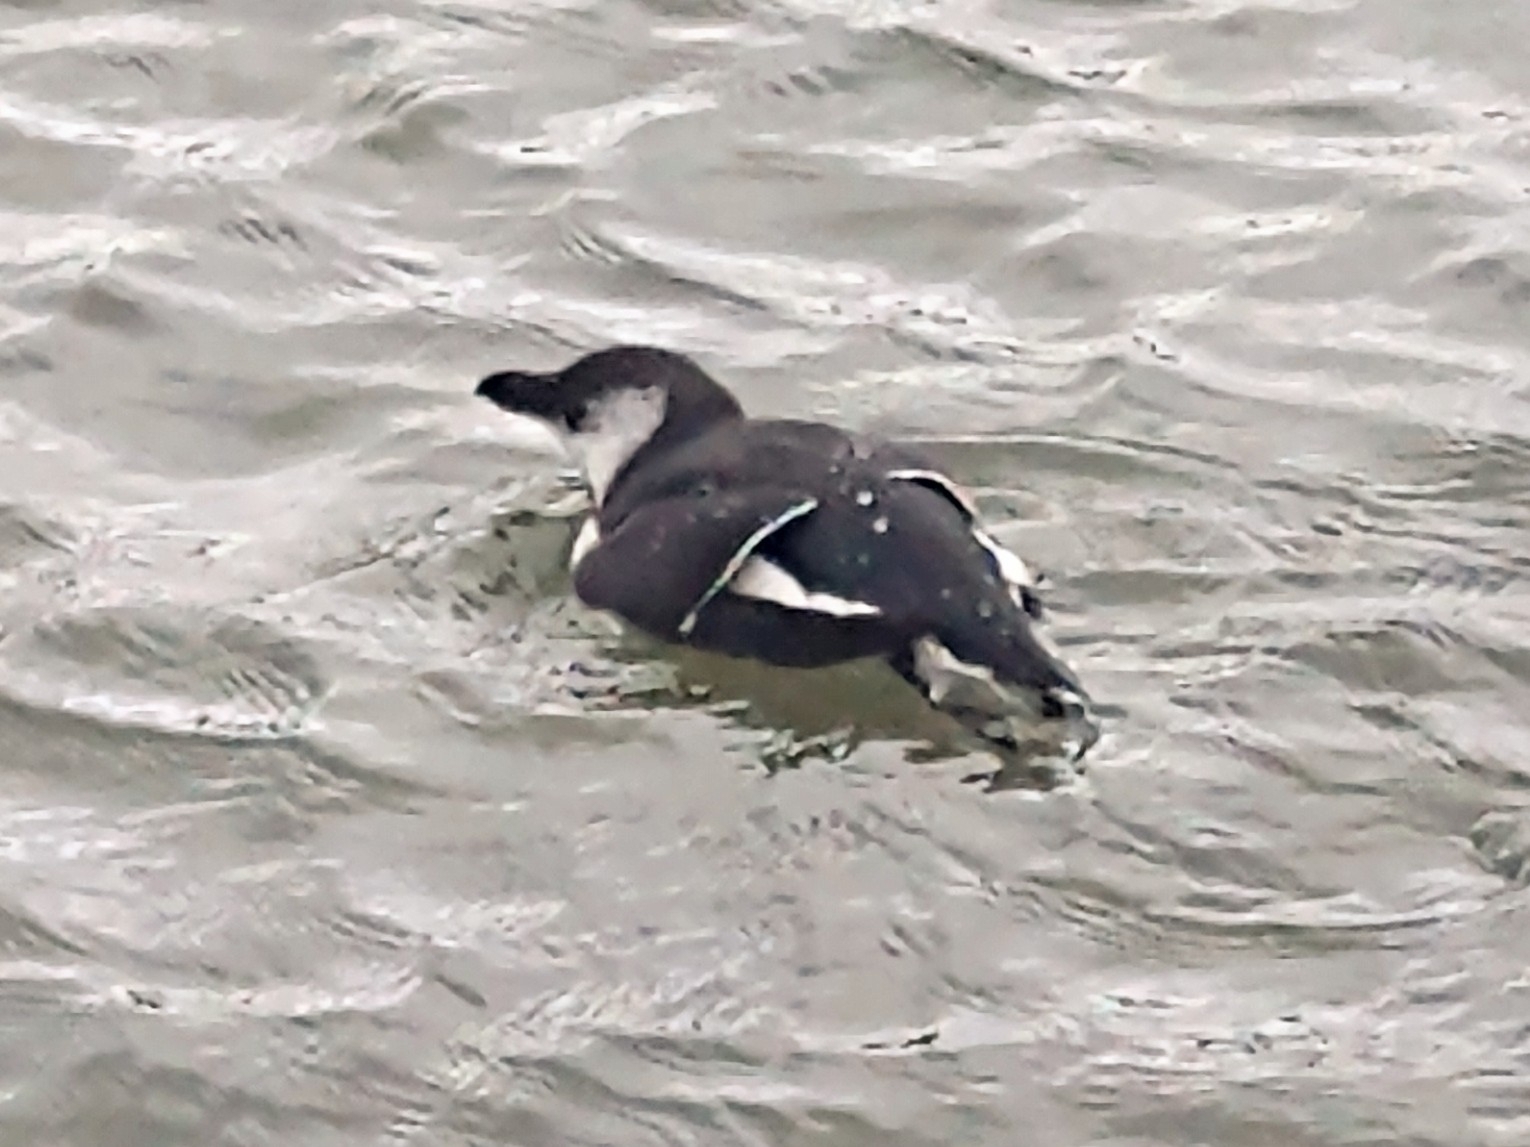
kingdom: Animalia
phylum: Chordata
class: Aves
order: Charadriiformes
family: Alcidae
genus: Alca
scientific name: Alca torda
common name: Razorbill
